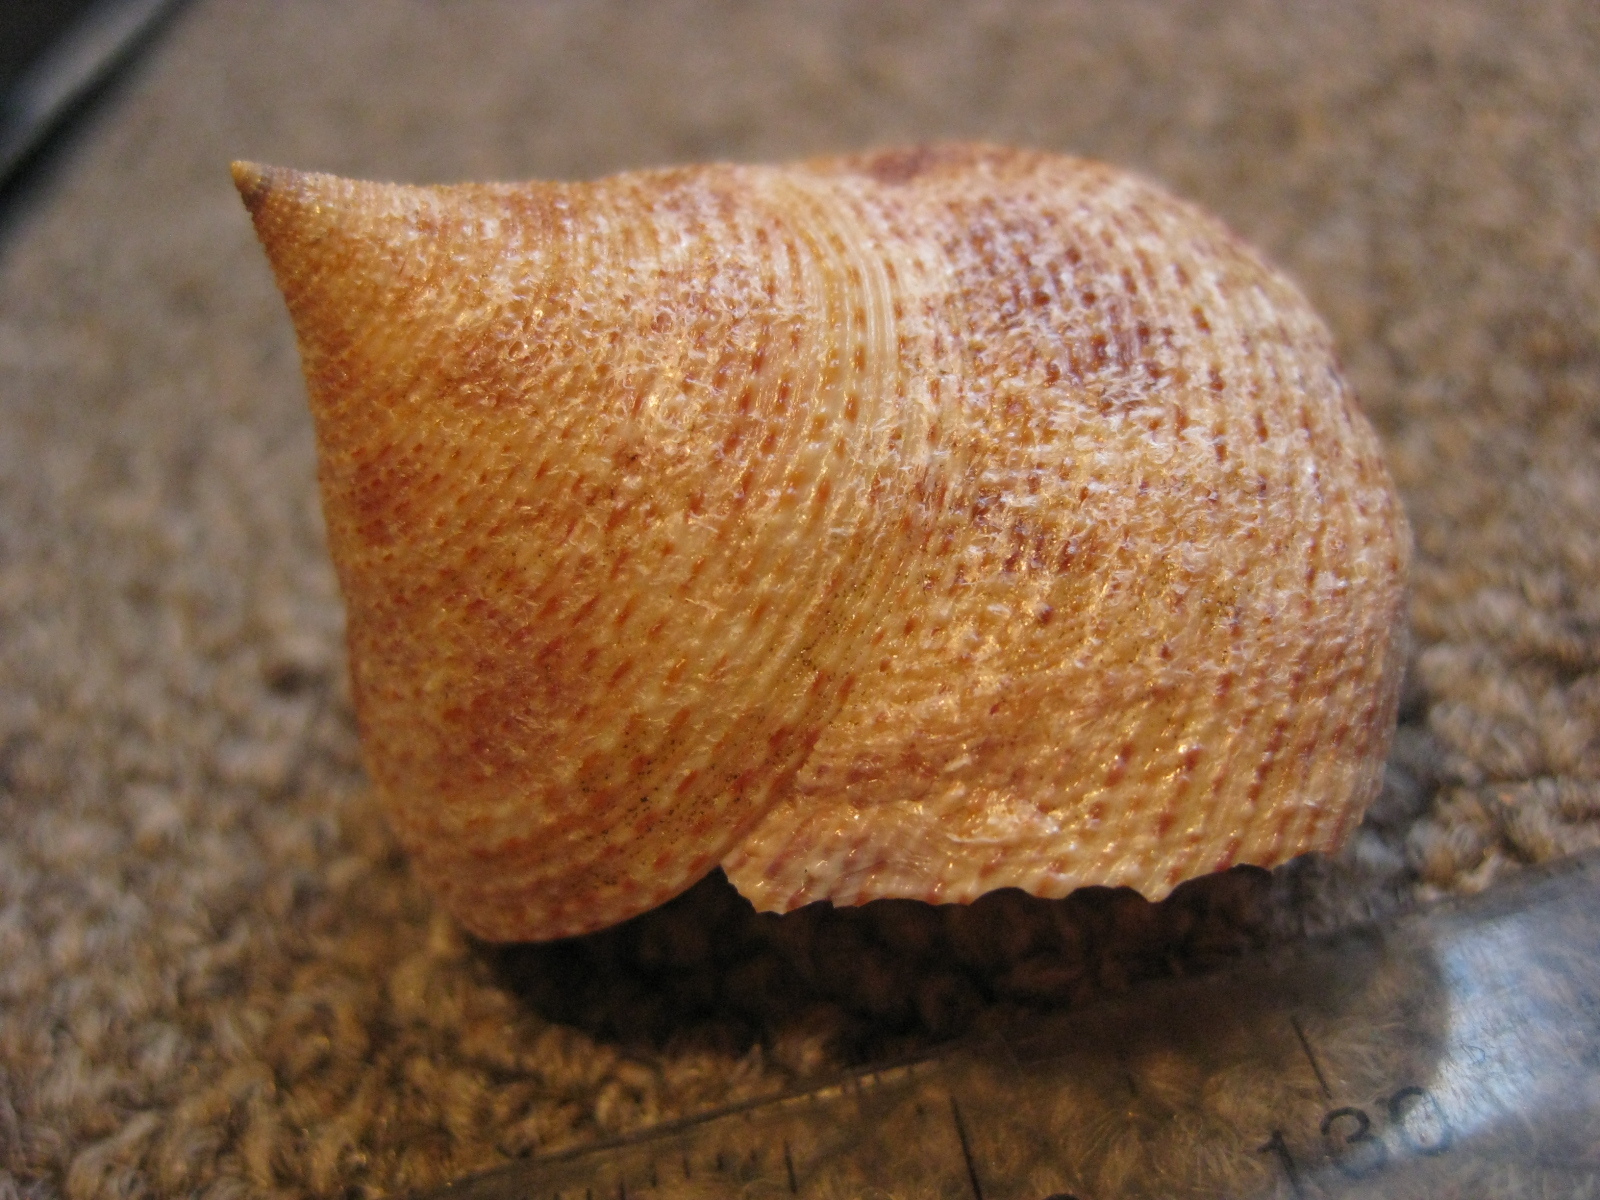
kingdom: Animalia
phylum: Mollusca
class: Gastropoda
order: Trochida
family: Calliostomatidae
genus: Maurea
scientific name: Maurea waikanae
